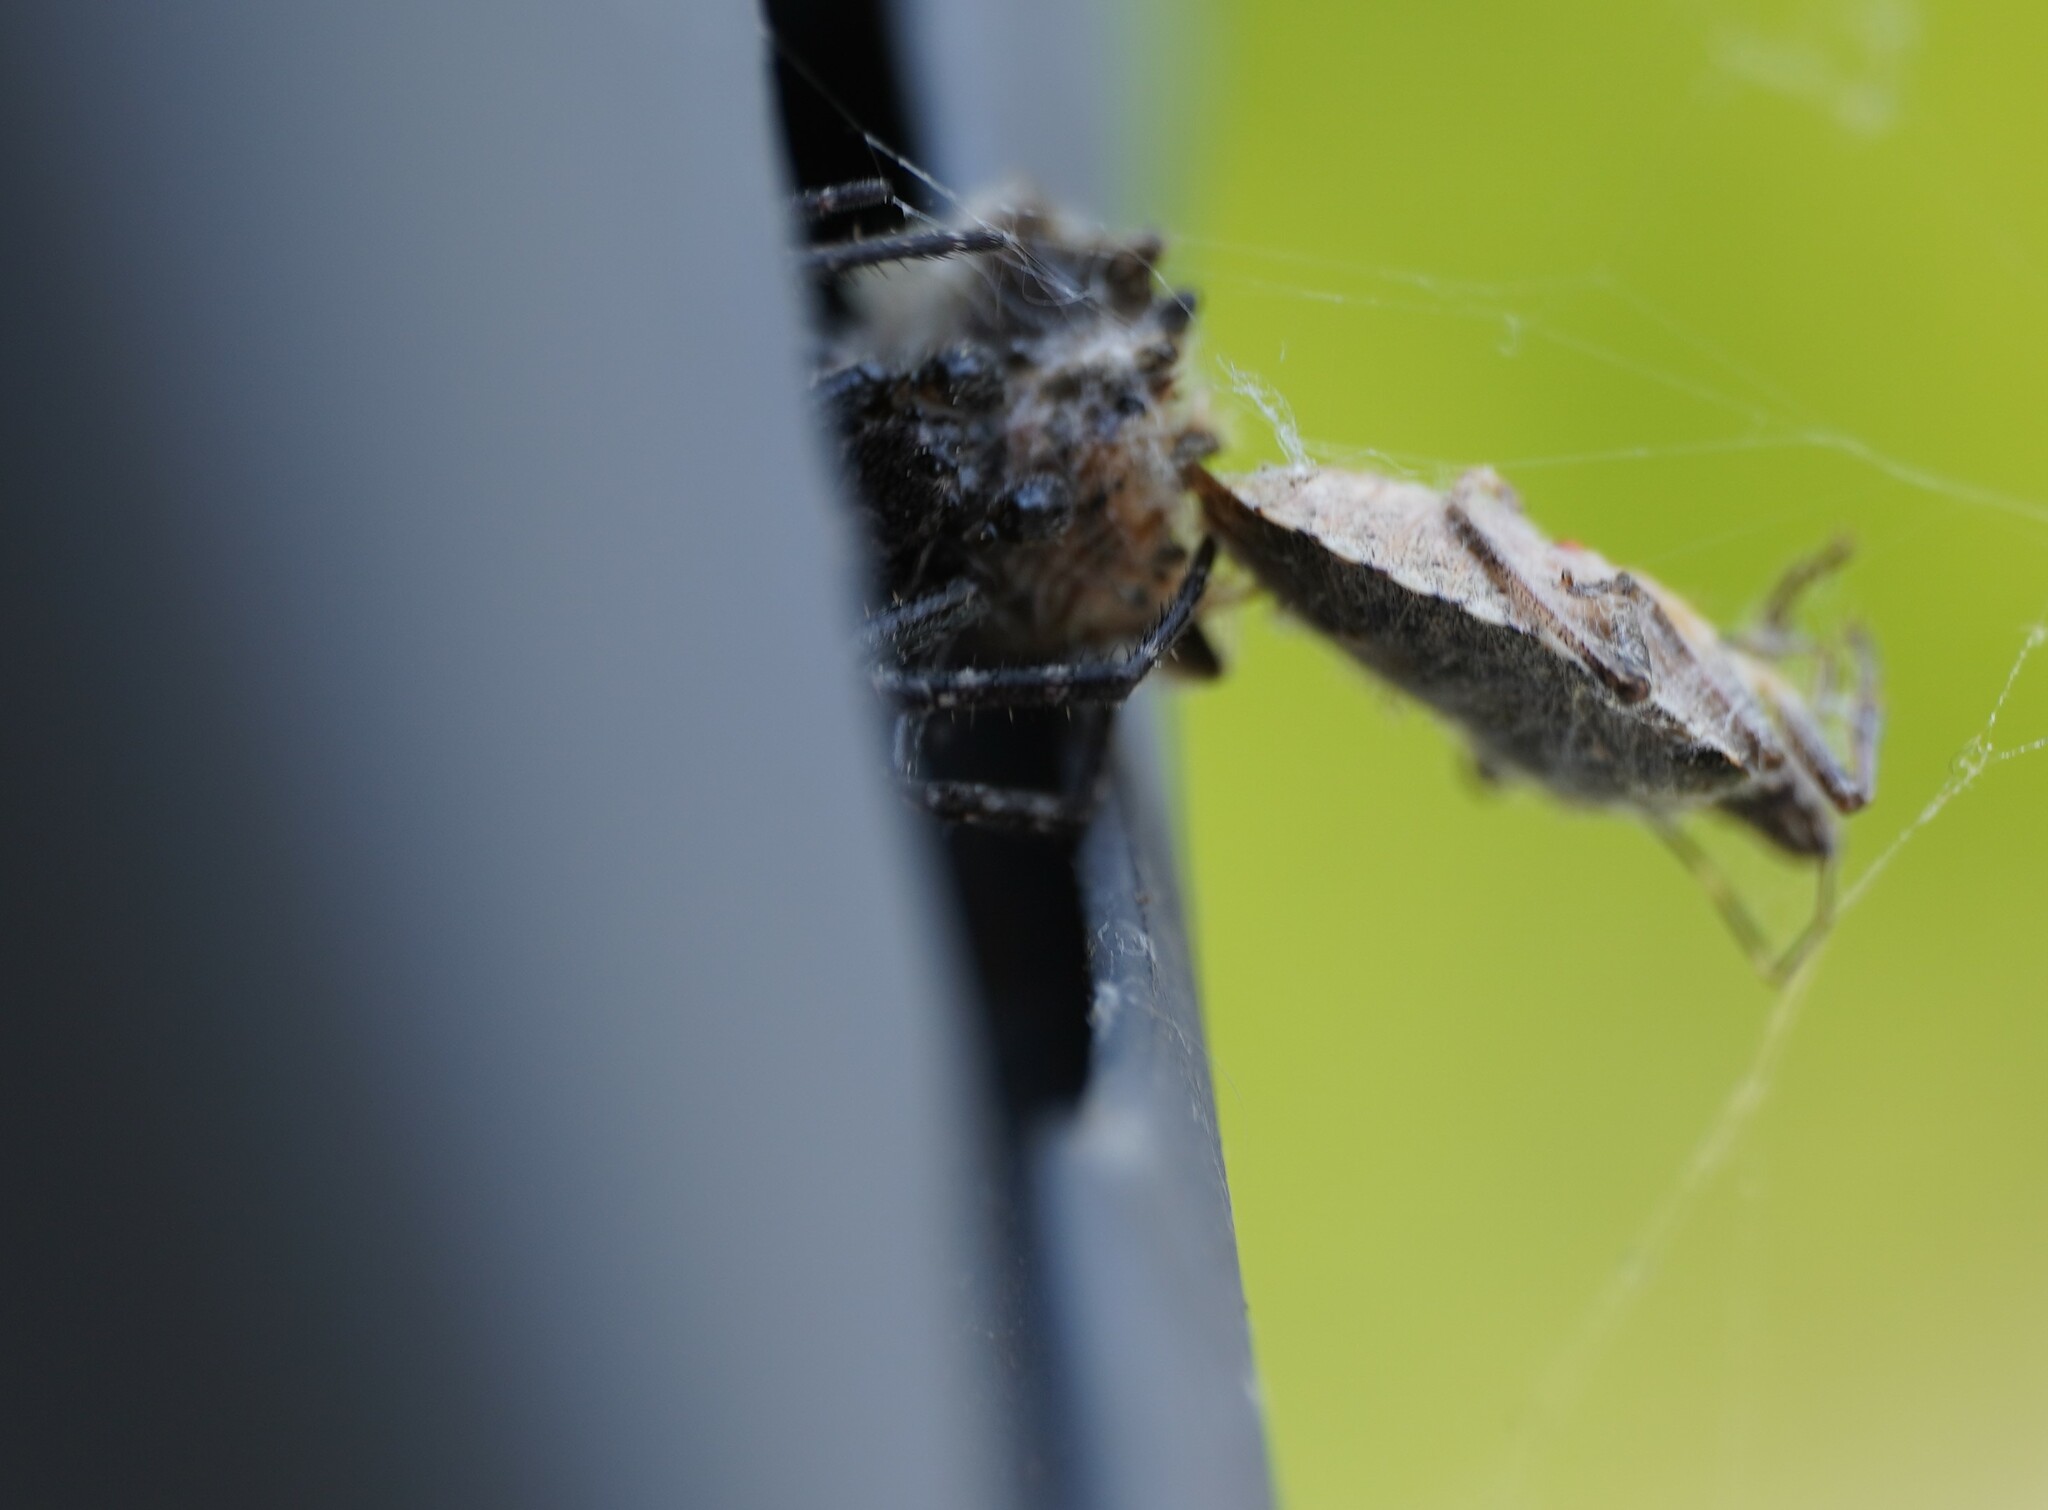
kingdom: Animalia
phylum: Arthropoda
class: Arachnida
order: Araneae
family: Araneidae
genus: Nuctenea
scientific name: Nuctenea umbratica
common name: Toad spider
